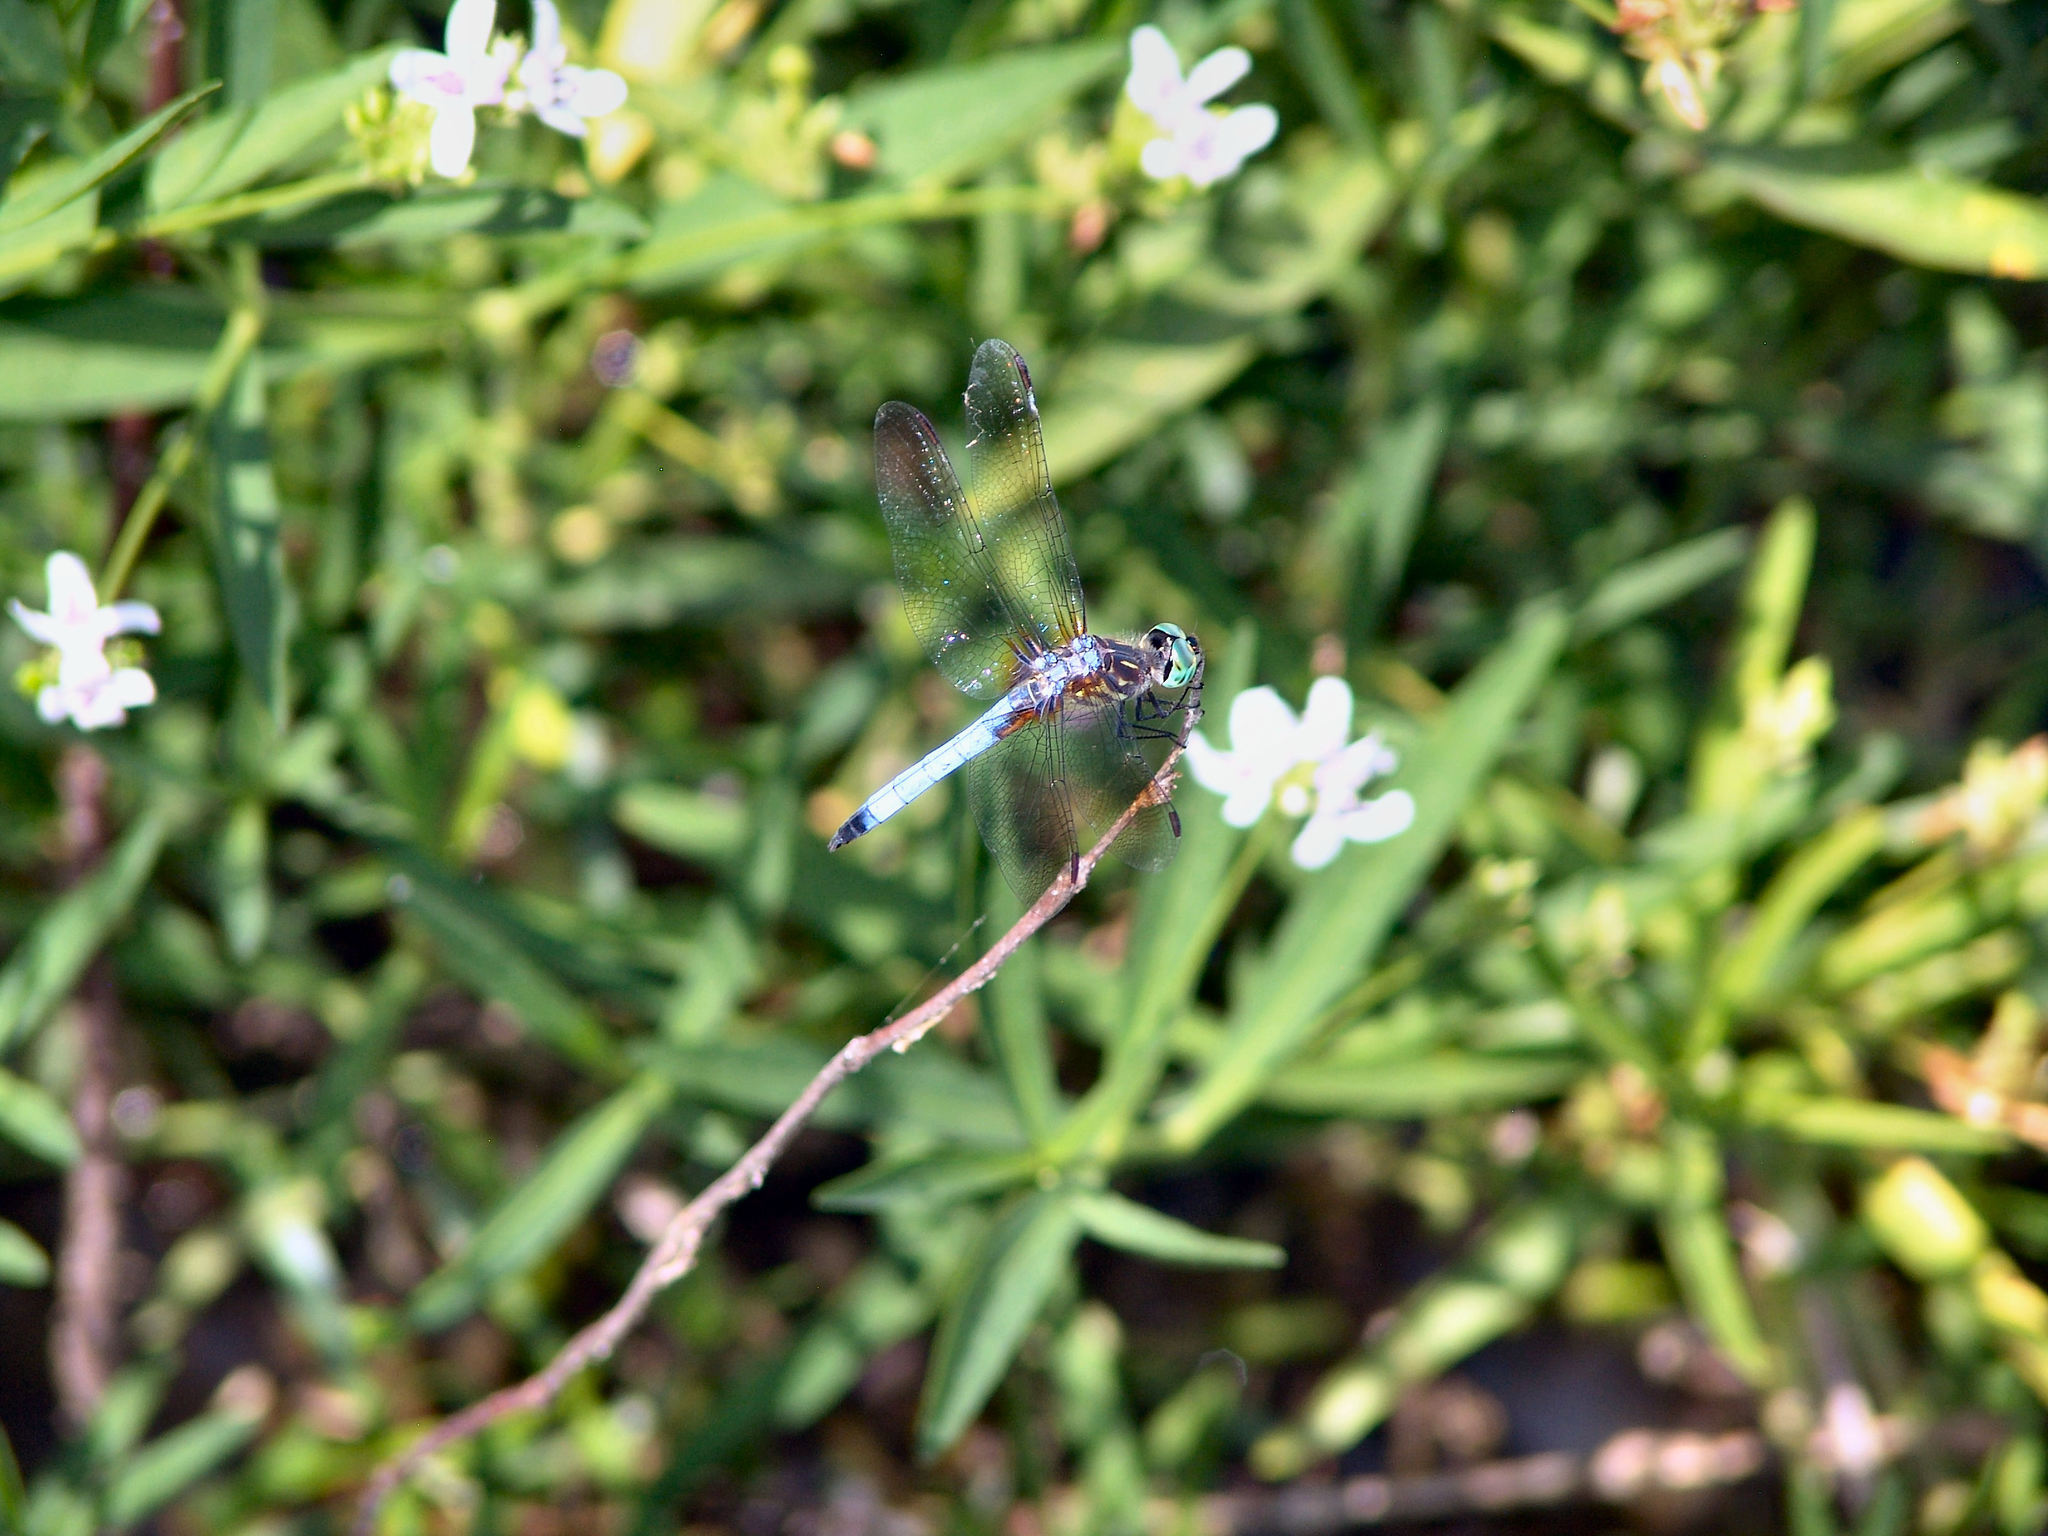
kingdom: Animalia
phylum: Arthropoda
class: Insecta
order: Odonata
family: Libellulidae
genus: Pachydiplax
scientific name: Pachydiplax longipennis
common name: Blue dasher
